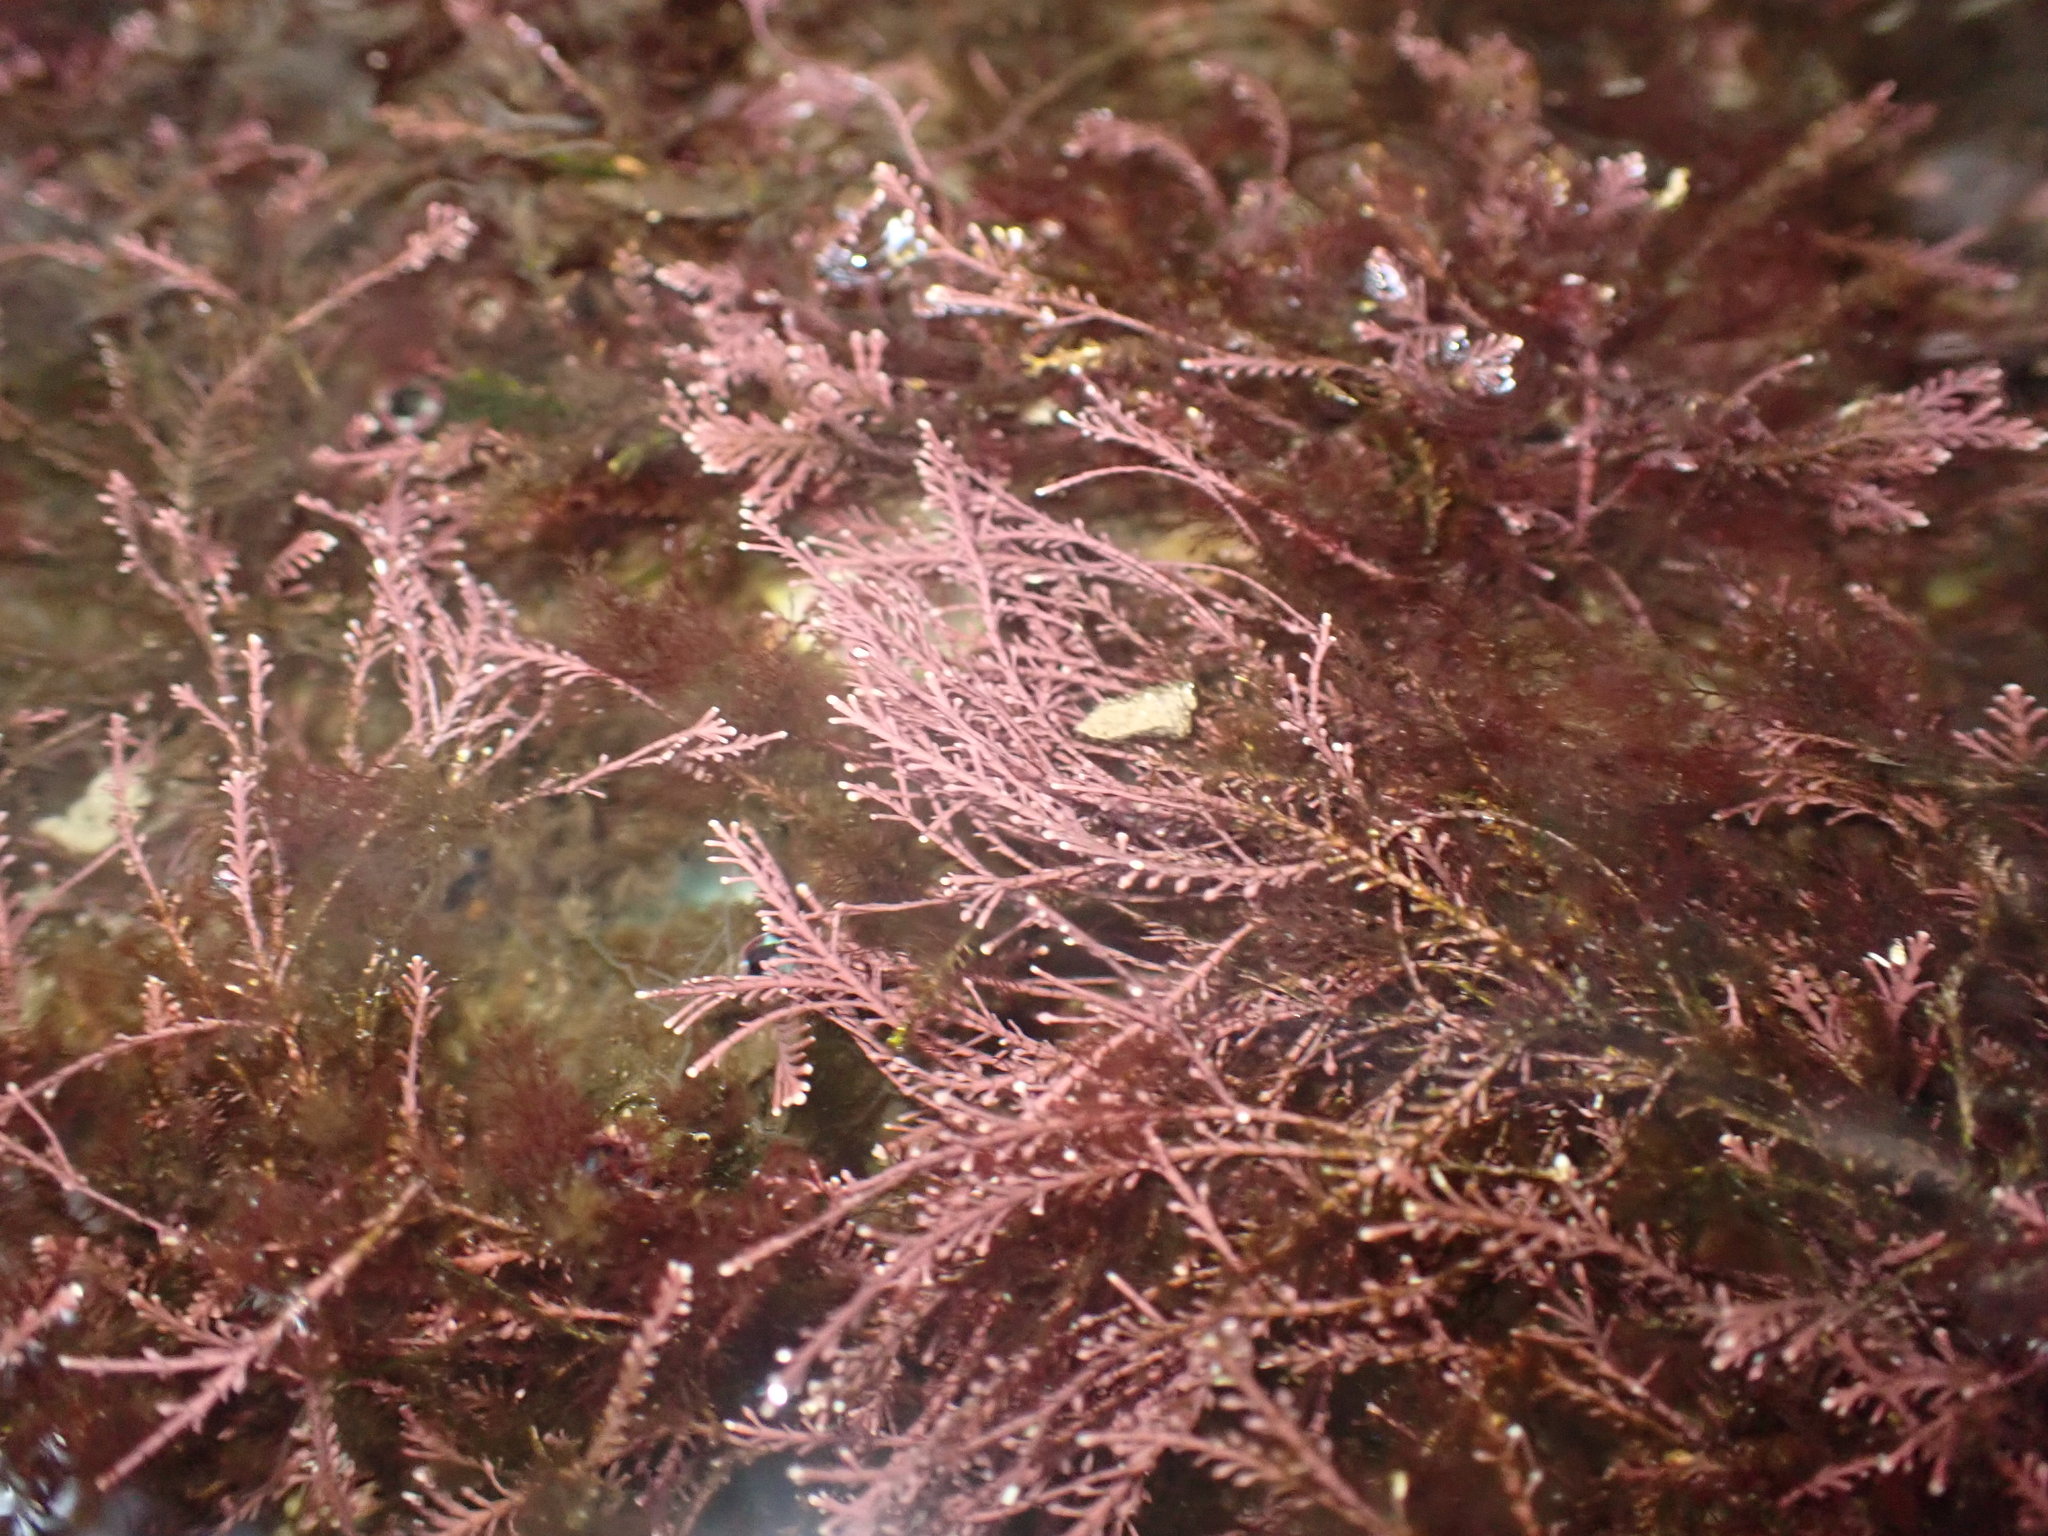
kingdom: Plantae
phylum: Rhodophyta
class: Florideophyceae
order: Corallinales
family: Corallinaceae
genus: Corallina
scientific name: Corallina officinalis
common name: Coral weed
